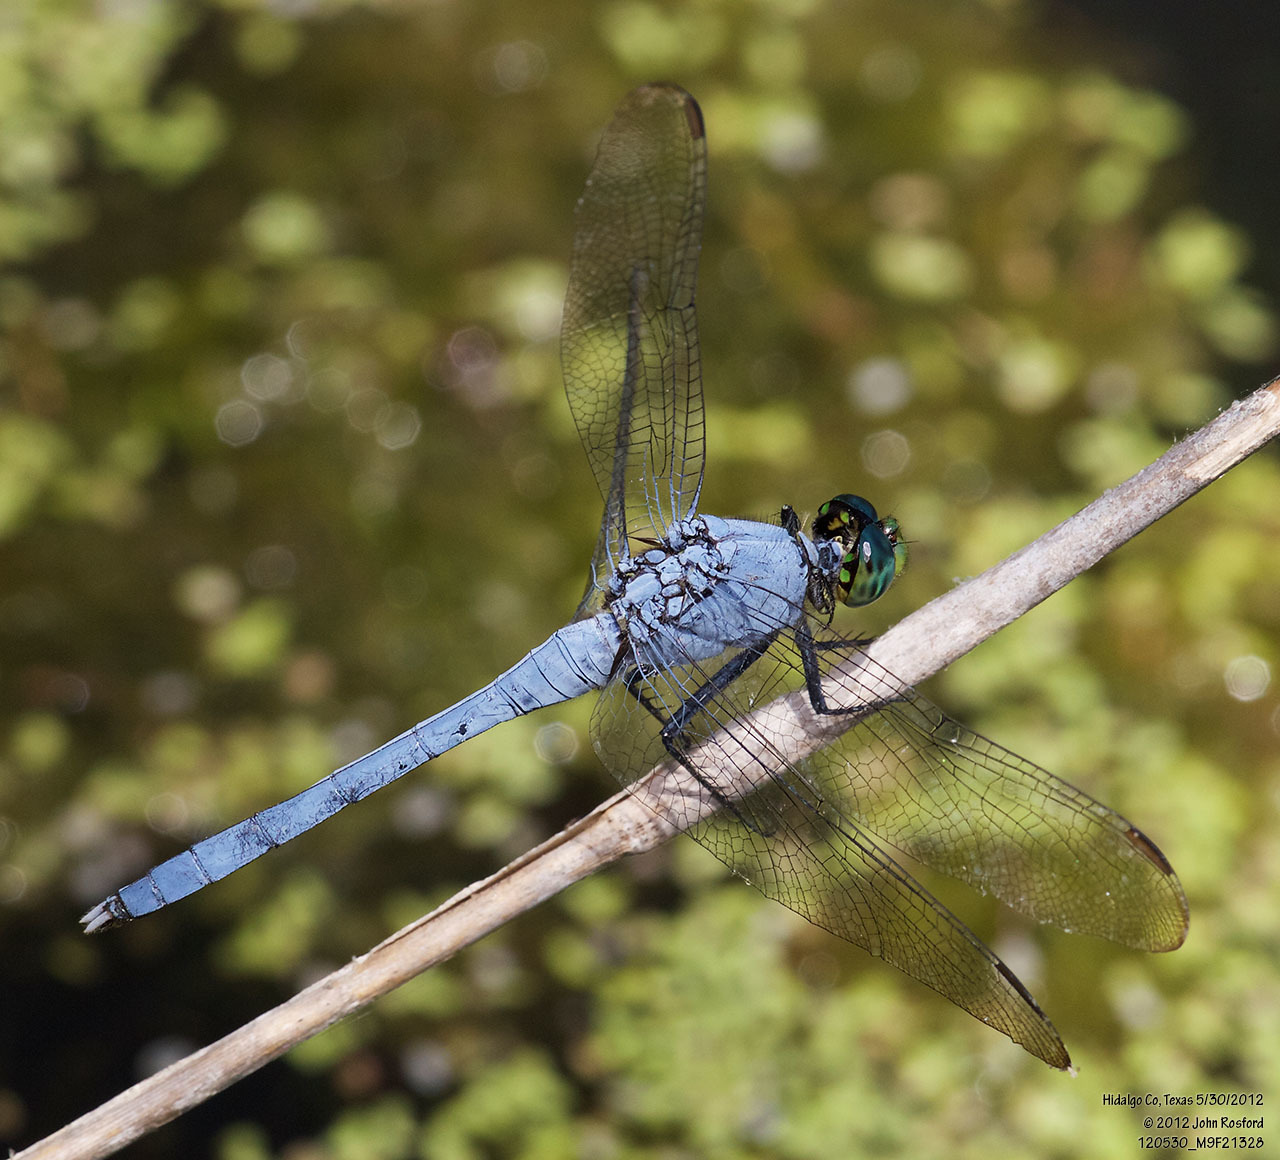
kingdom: Animalia
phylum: Arthropoda
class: Insecta
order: Odonata
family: Libellulidae
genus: Erythemis
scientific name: Erythemis simplicicollis
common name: Eastern pondhawk
